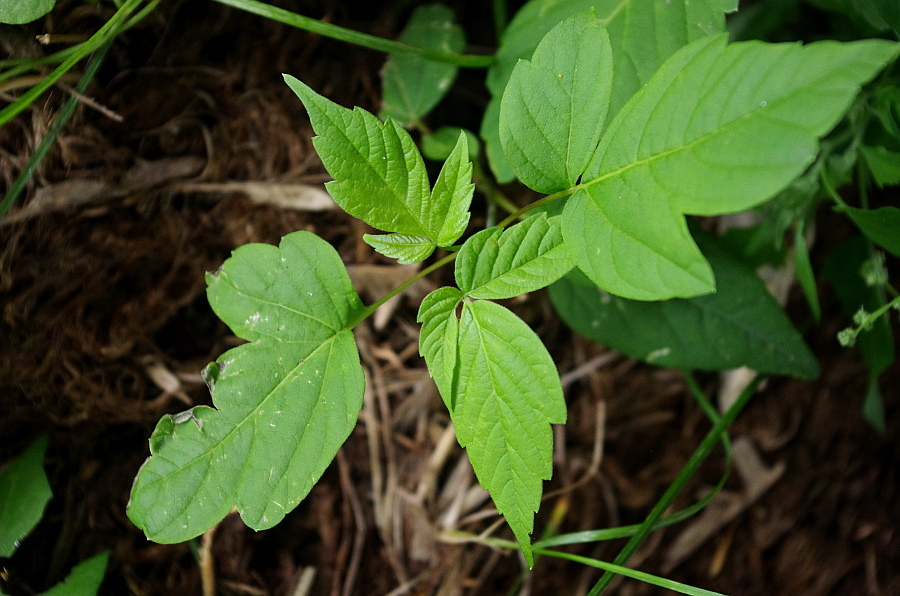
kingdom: Plantae
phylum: Tracheophyta
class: Magnoliopsida
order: Sapindales
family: Sapindaceae
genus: Acer
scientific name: Acer negundo
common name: Ashleaf maple
